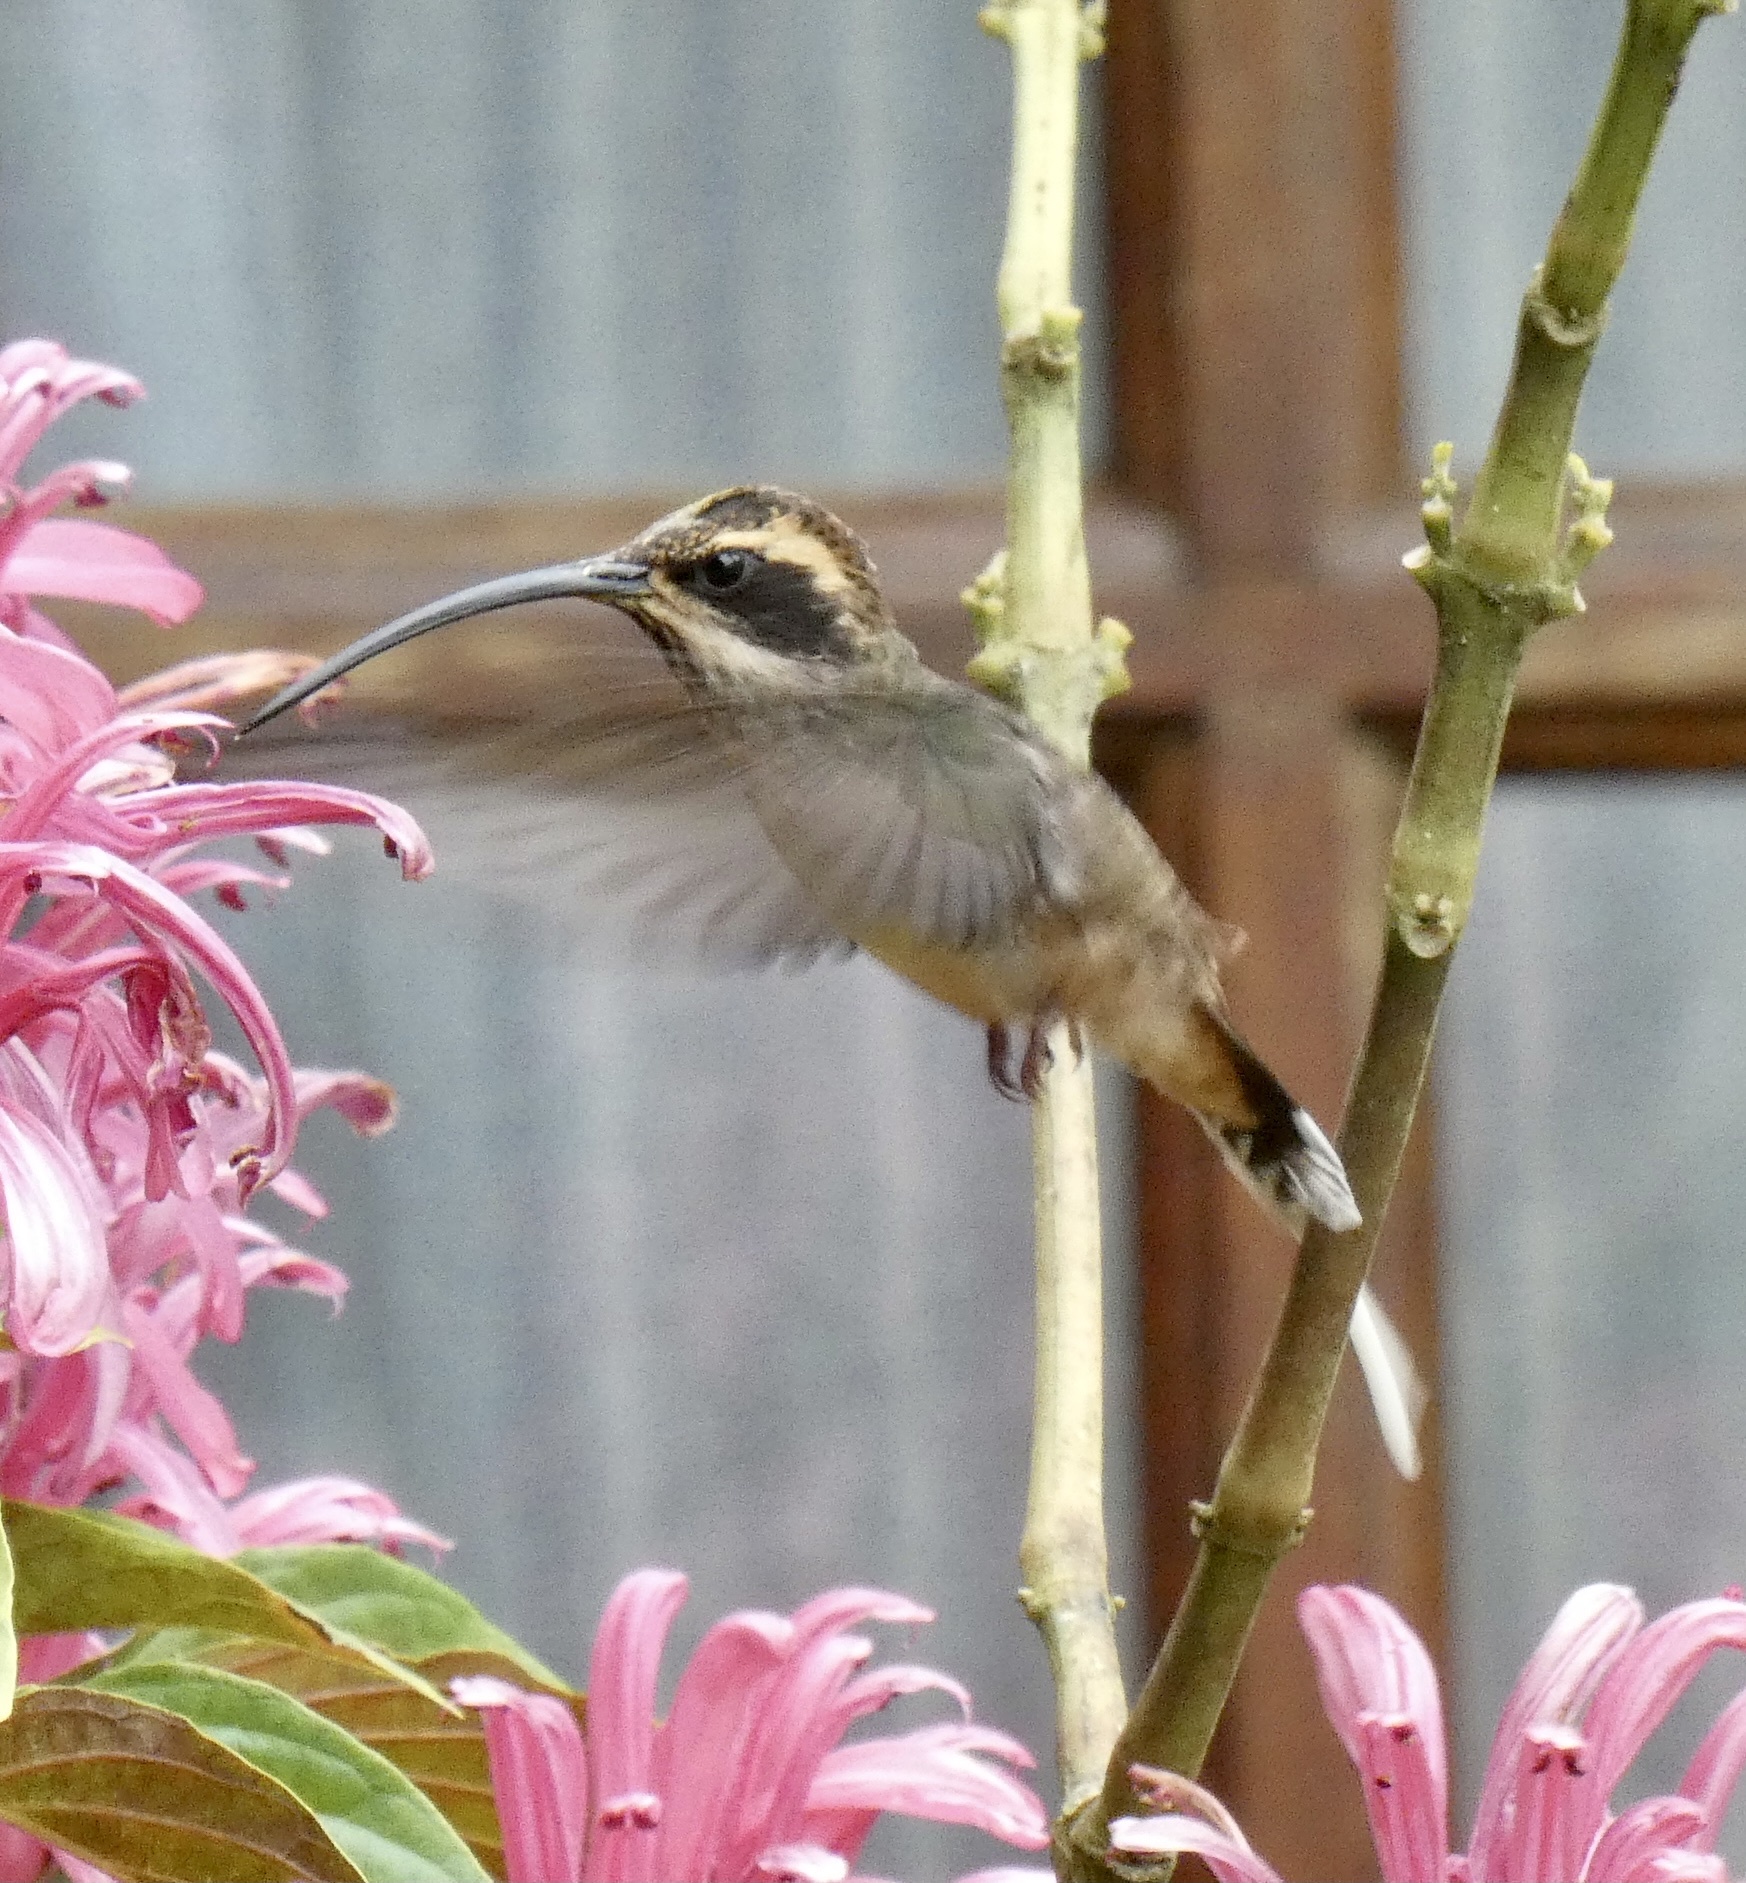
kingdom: Animalia
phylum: Chordata
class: Aves
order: Apodiformes
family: Trochilidae
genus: Phaethornis
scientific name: Phaethornis eurynome
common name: Scale-throated hermit
